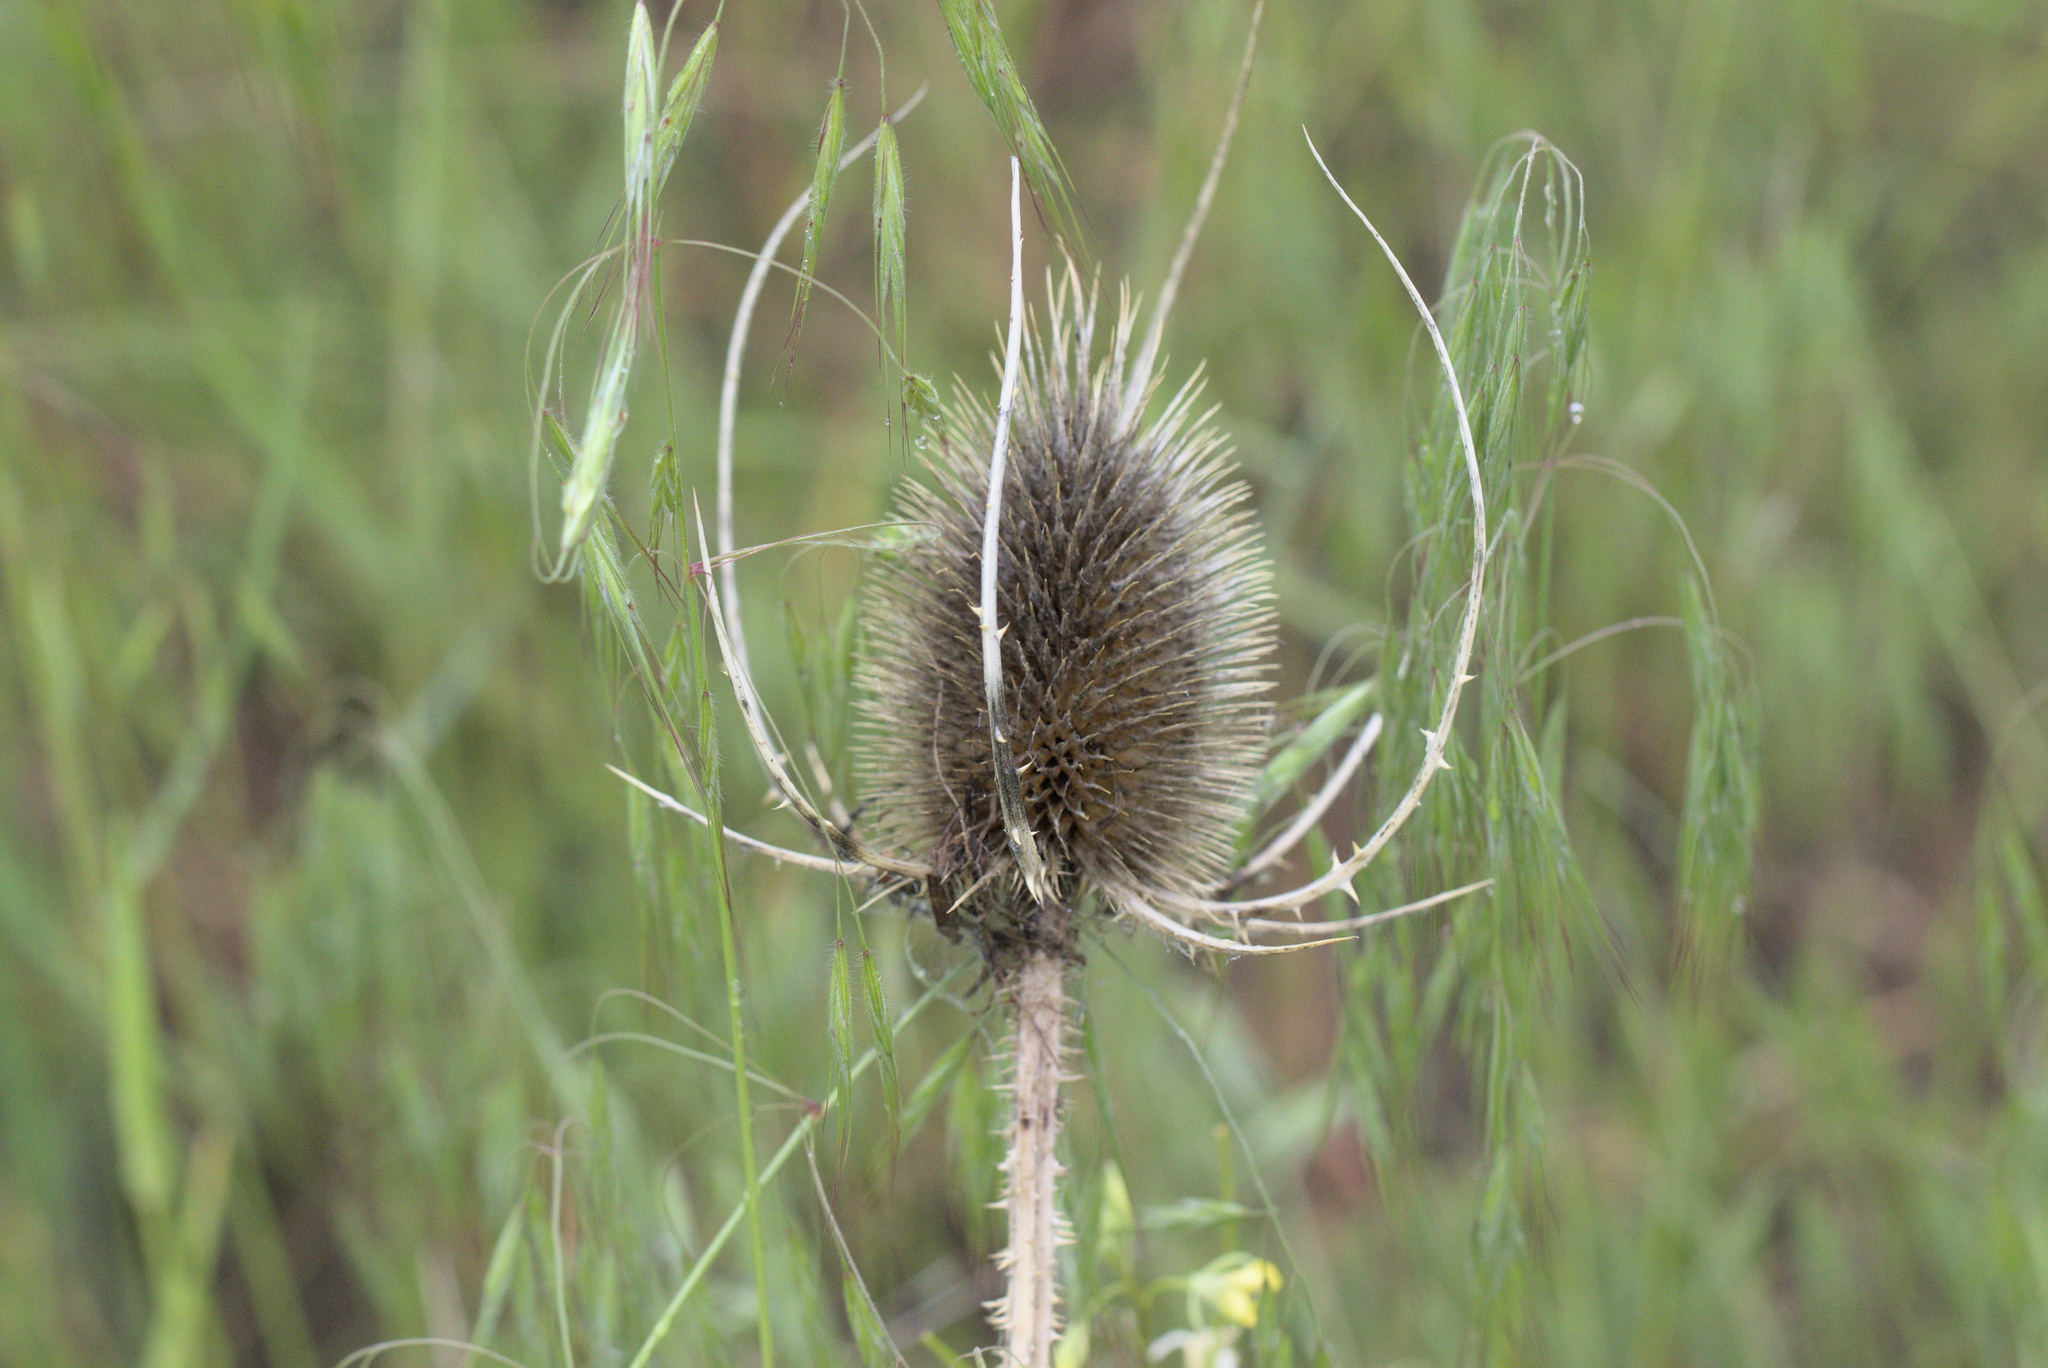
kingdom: Plantae
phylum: Tracheophyta
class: Magnoliopsida
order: Dipsacales
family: Caprifoliaceae
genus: Dipsacus
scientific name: Dipsacus fullonum
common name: Teasel
